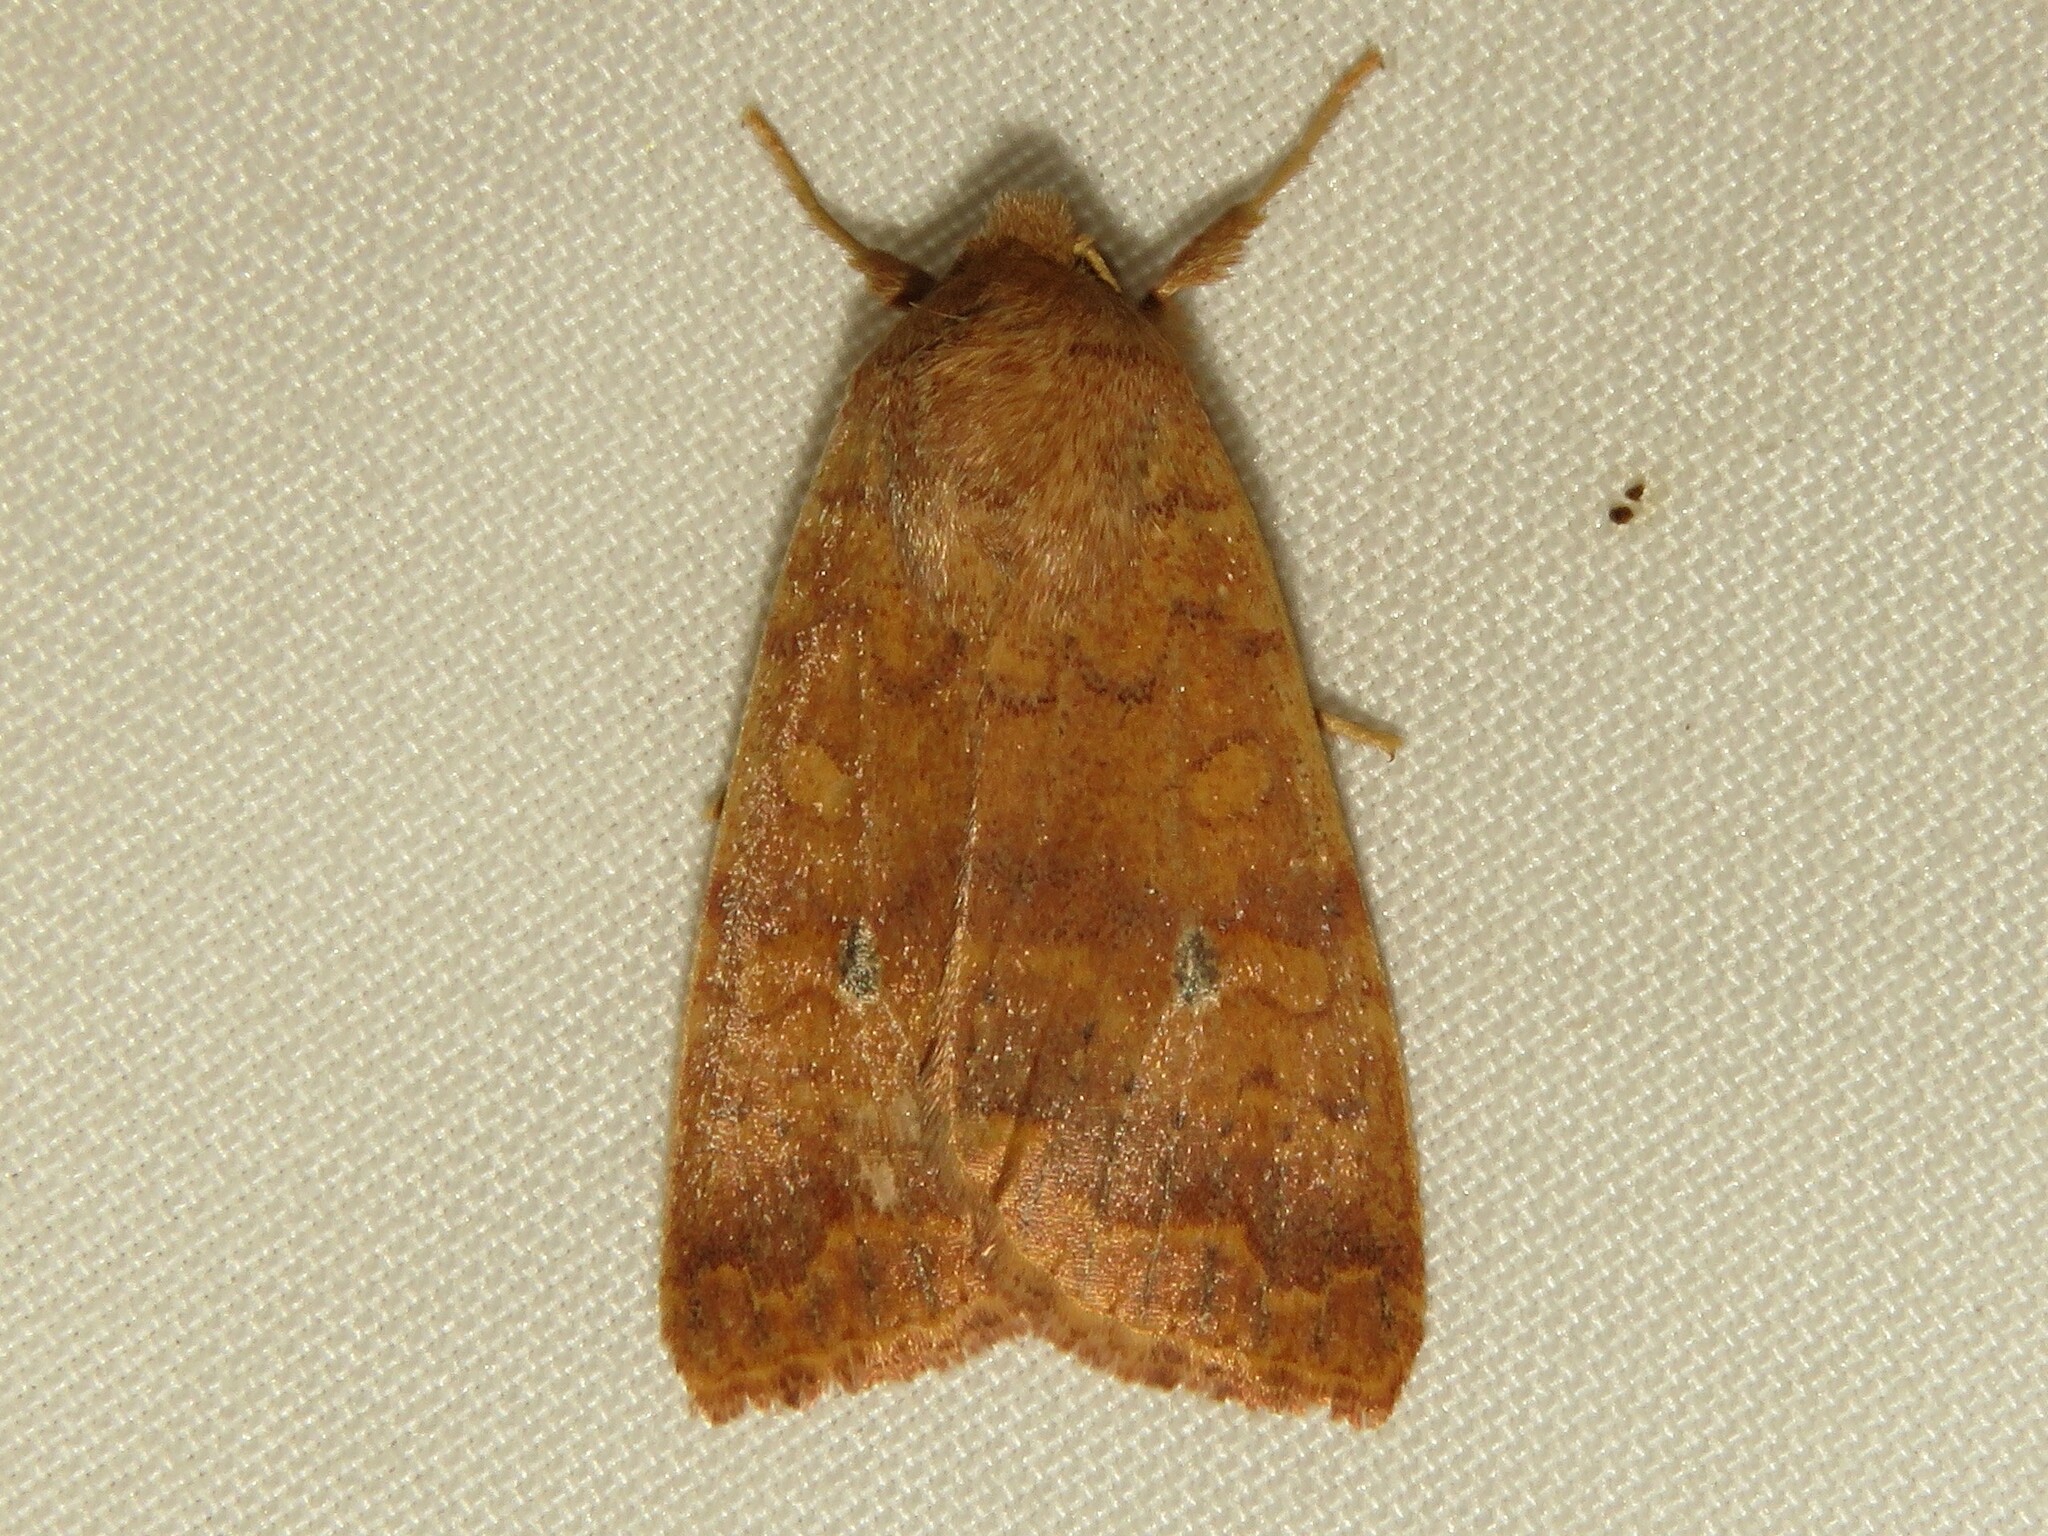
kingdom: Animalia
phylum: Arthropoda
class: Insecta
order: Lepidoptera
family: Noctuidae
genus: Agrochola
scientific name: Agrochola bicolorago
